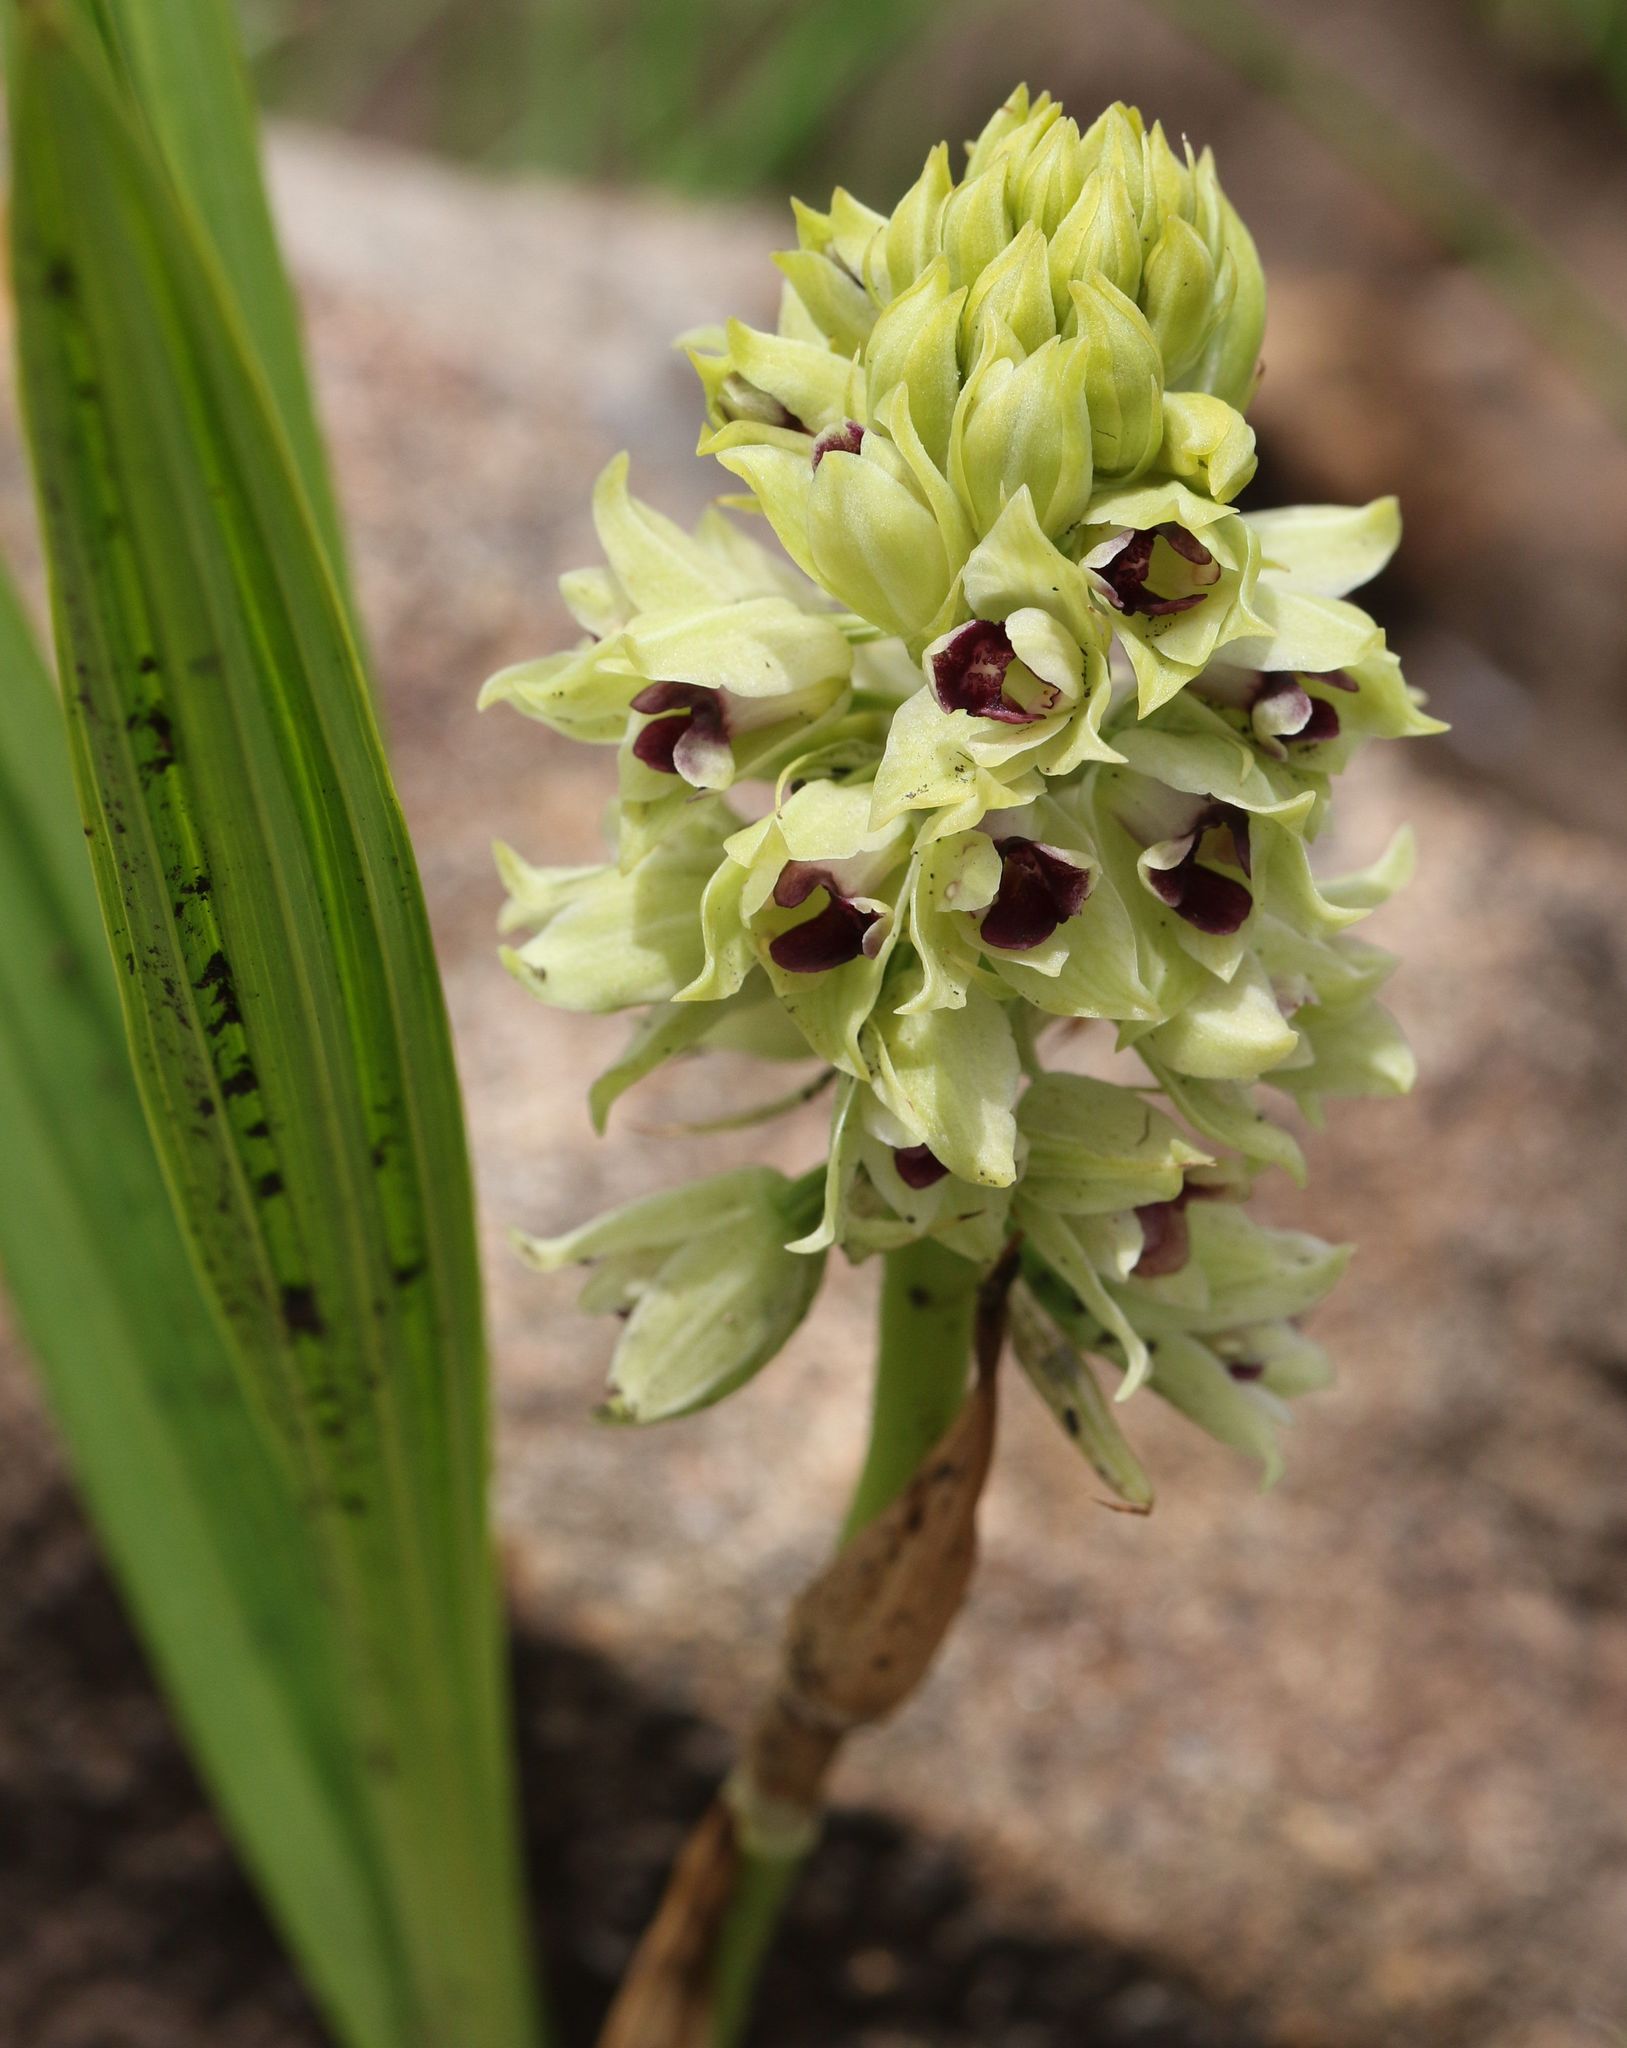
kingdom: Plantae
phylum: Tracheophyta
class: Liliopsida
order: Asparagales
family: Orchidaceae
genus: Eulophia
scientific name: Eulophia foliosa
